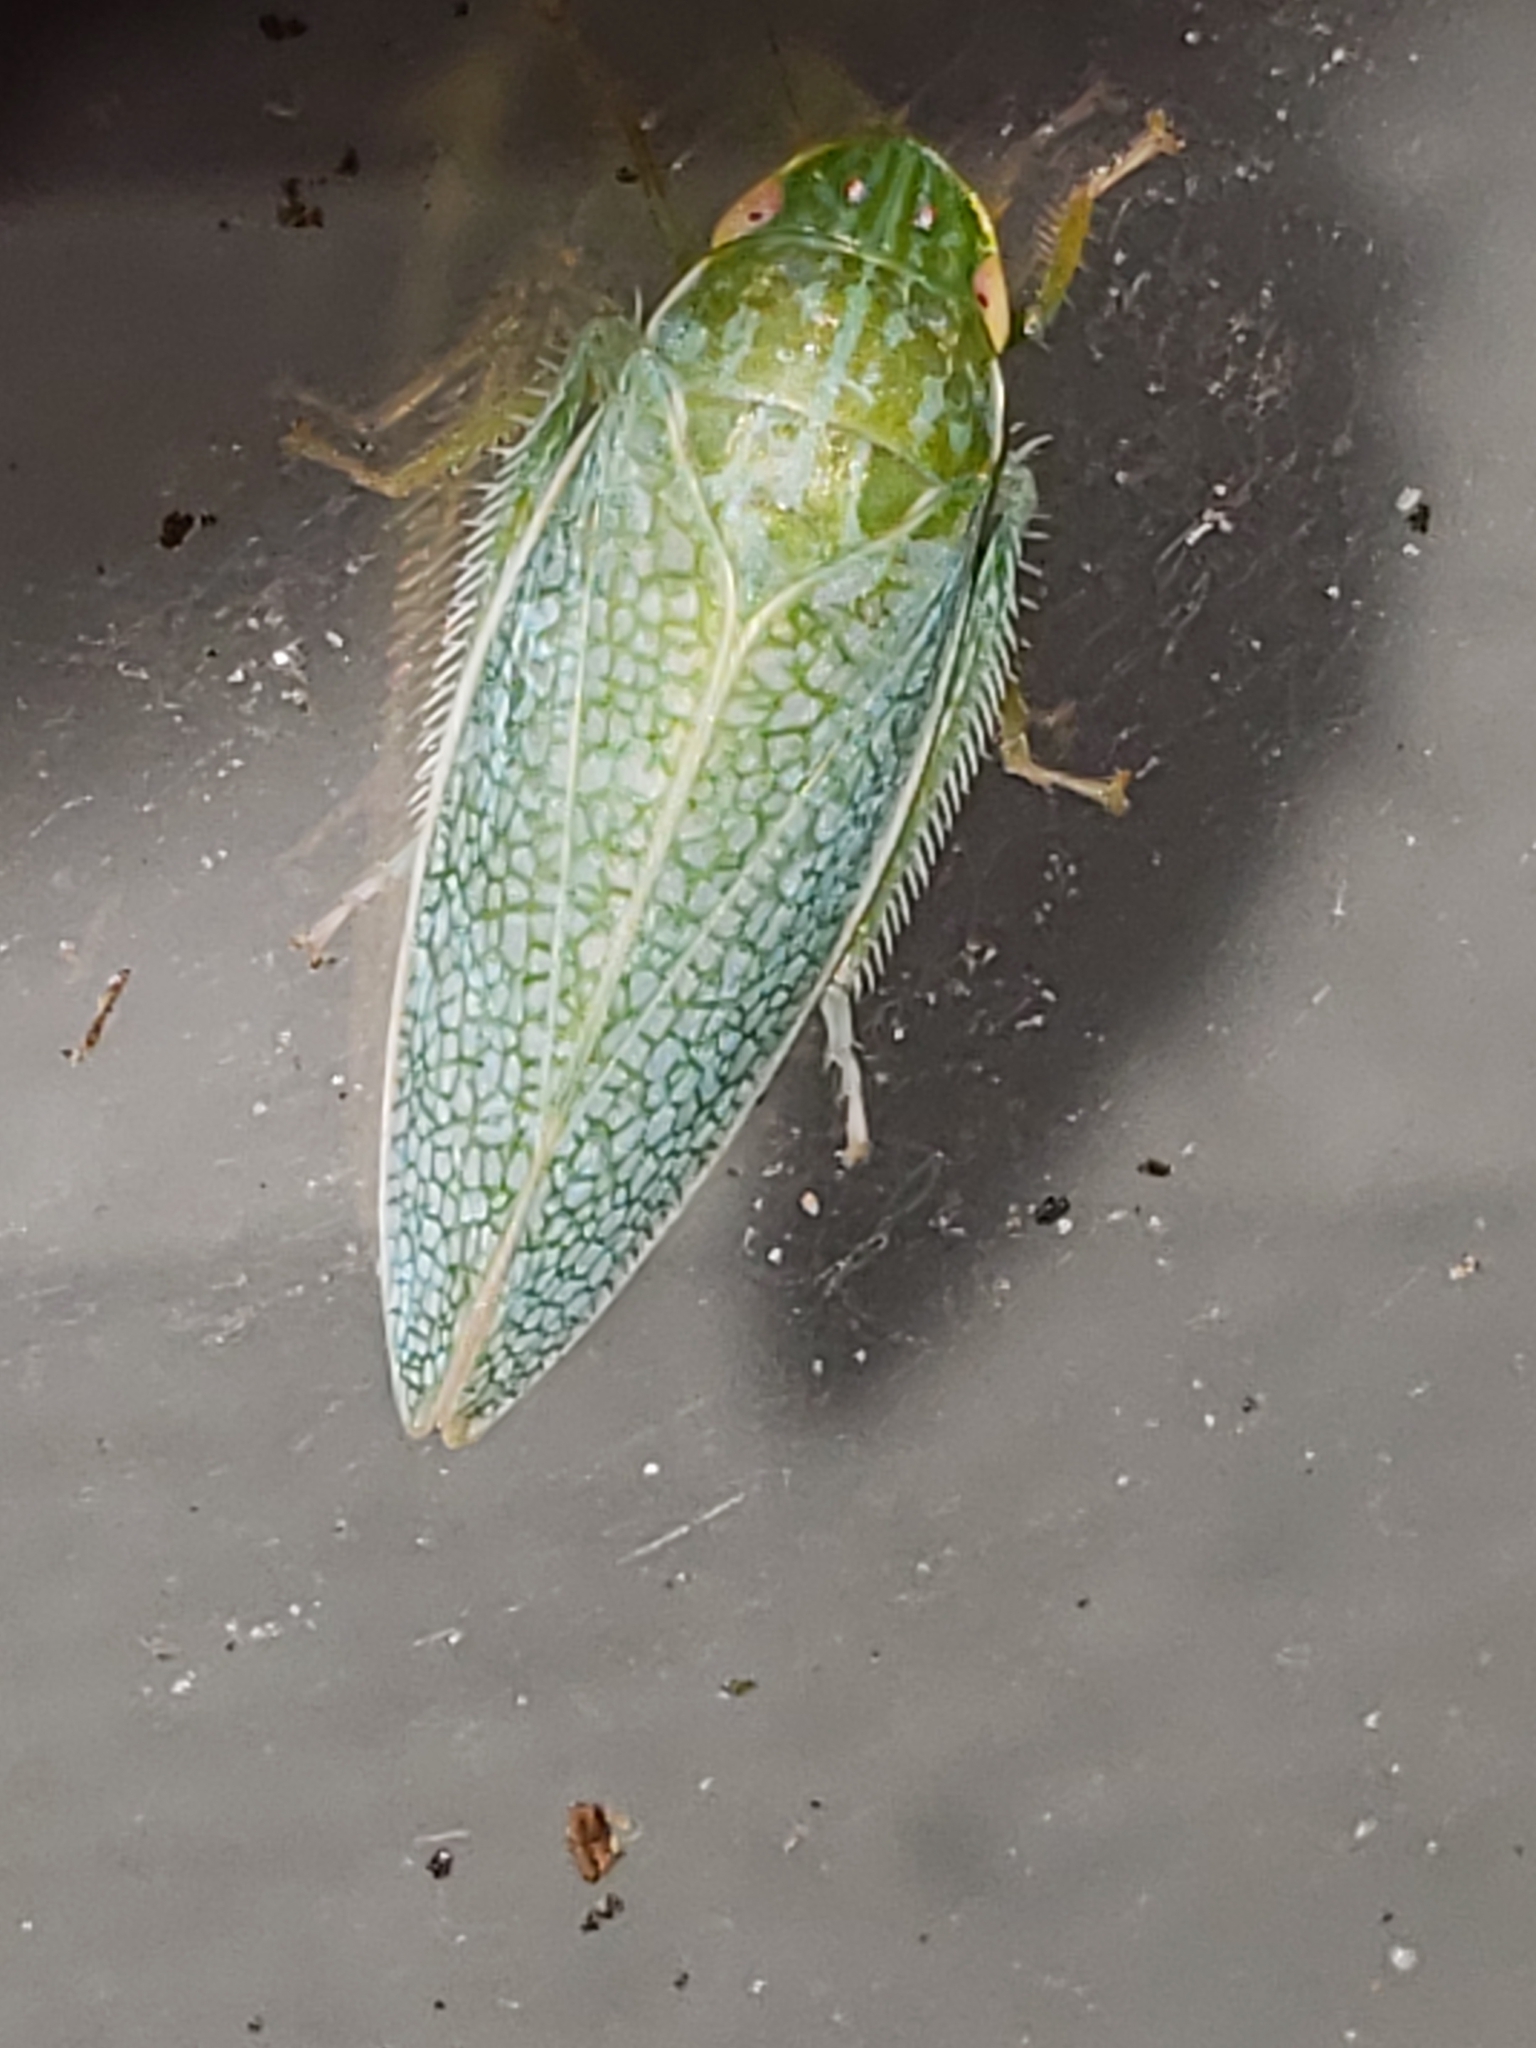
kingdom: Animalia
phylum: Arthropoda
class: Insecta
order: Hemiptera
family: Cicadellidae
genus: Gyponana
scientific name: Gyponana procera
